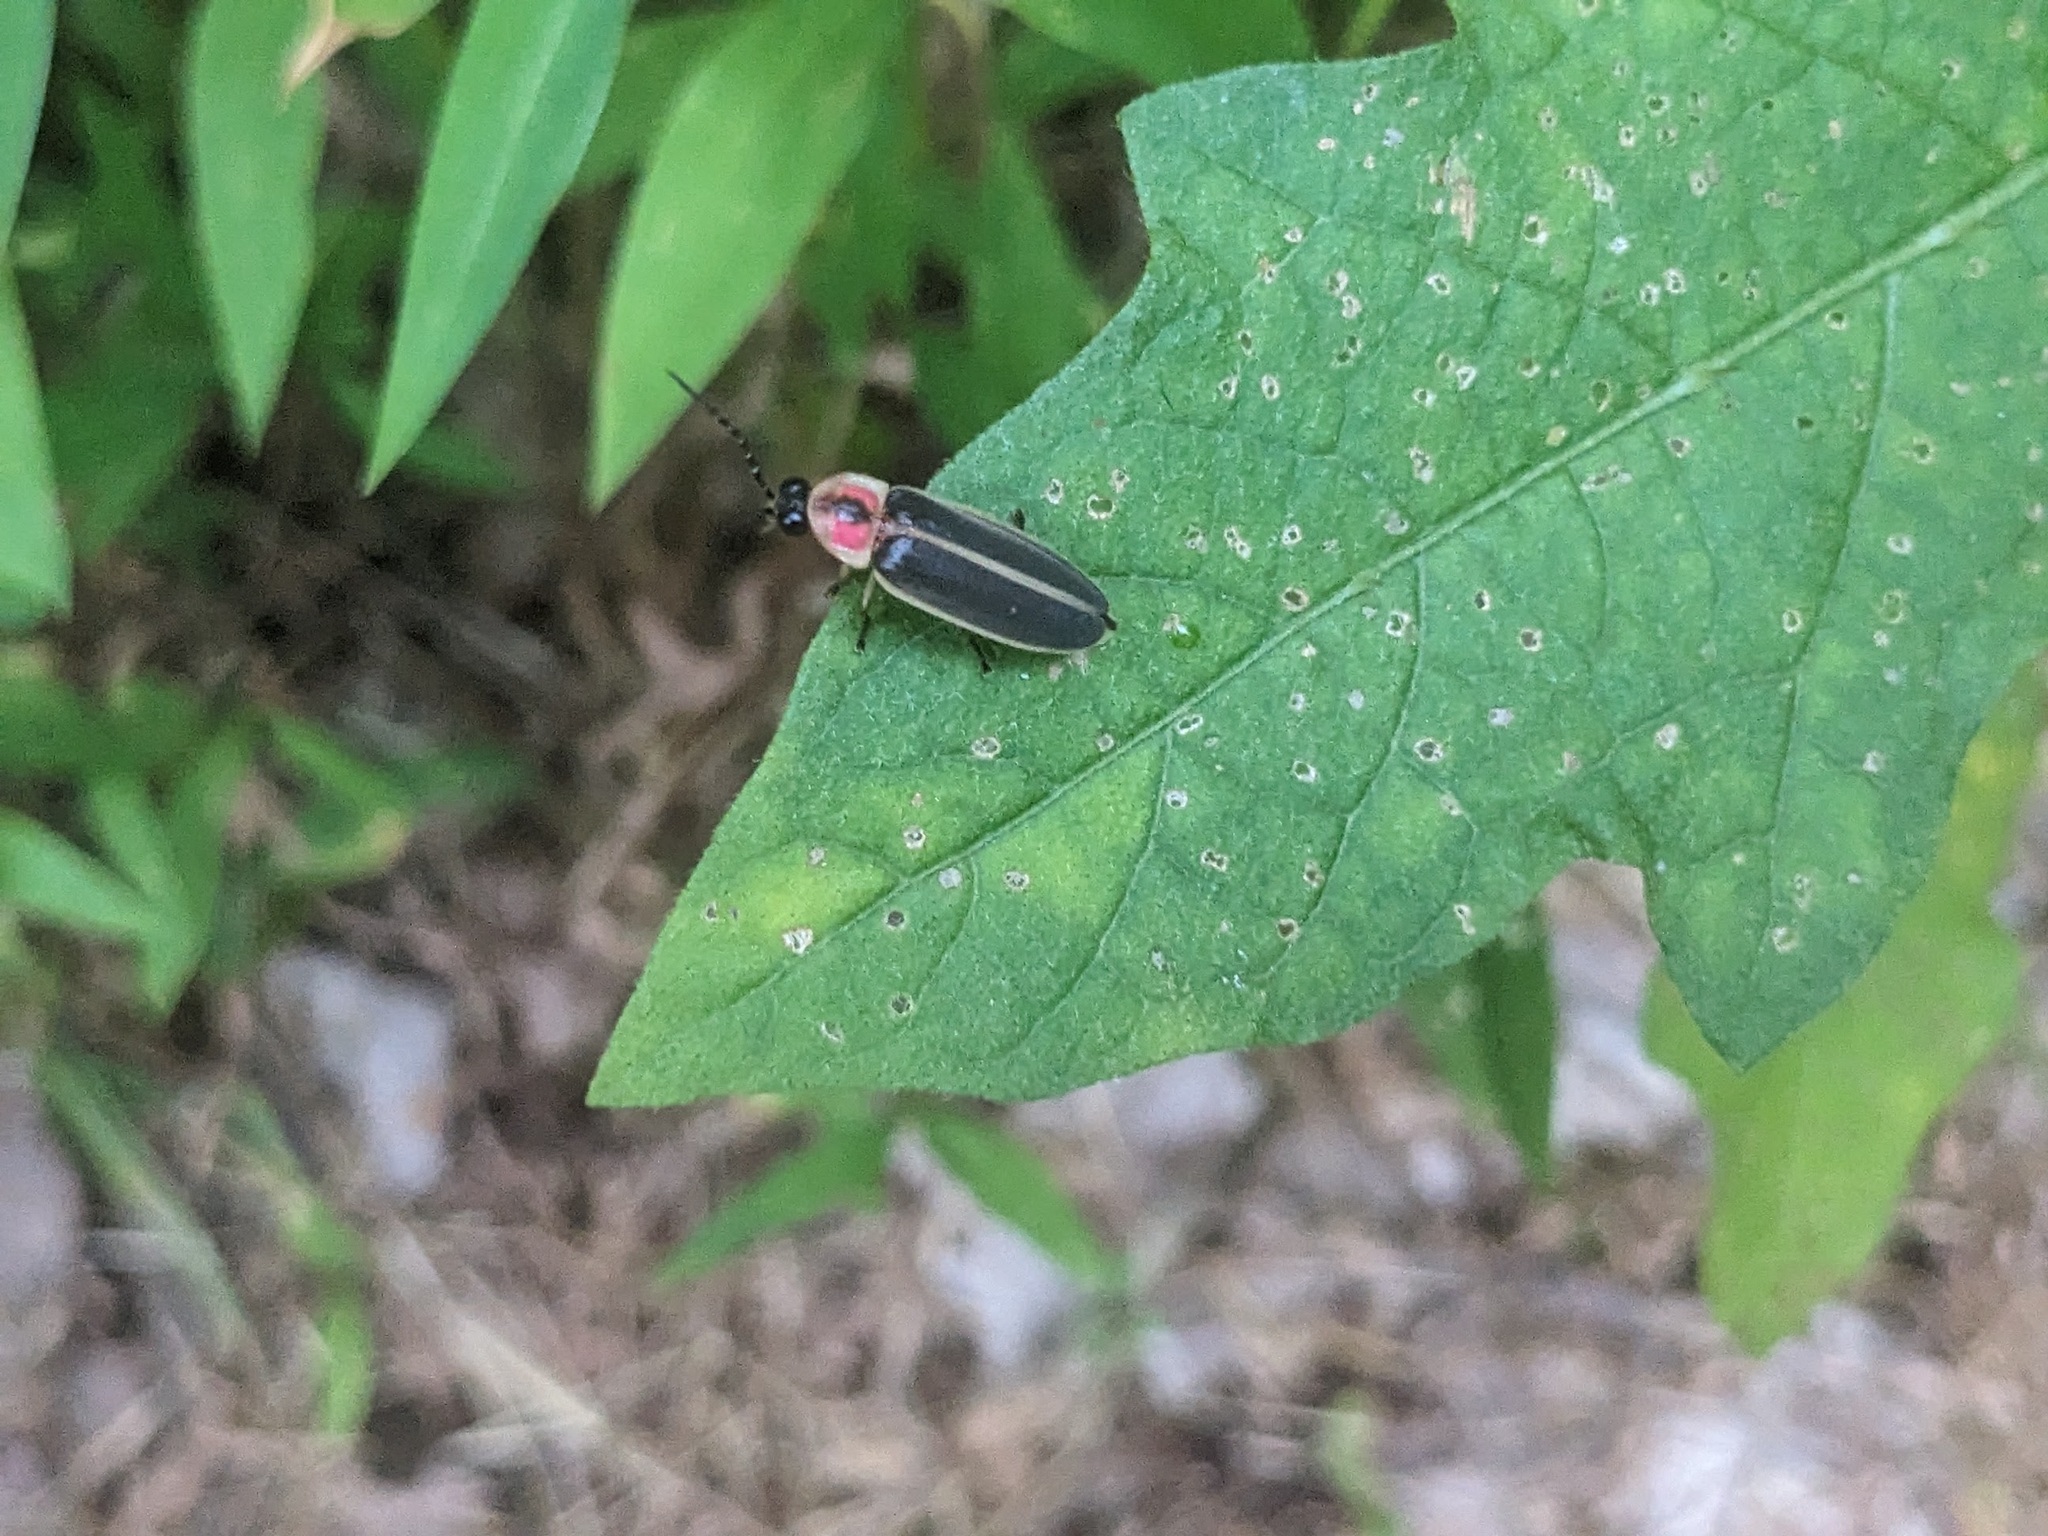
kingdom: Animalia
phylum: Arthropoda
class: Insecta
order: Coleoptera
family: Lampyridae
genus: Photinus
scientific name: Photinus pyralis
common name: Big dipper firefly
